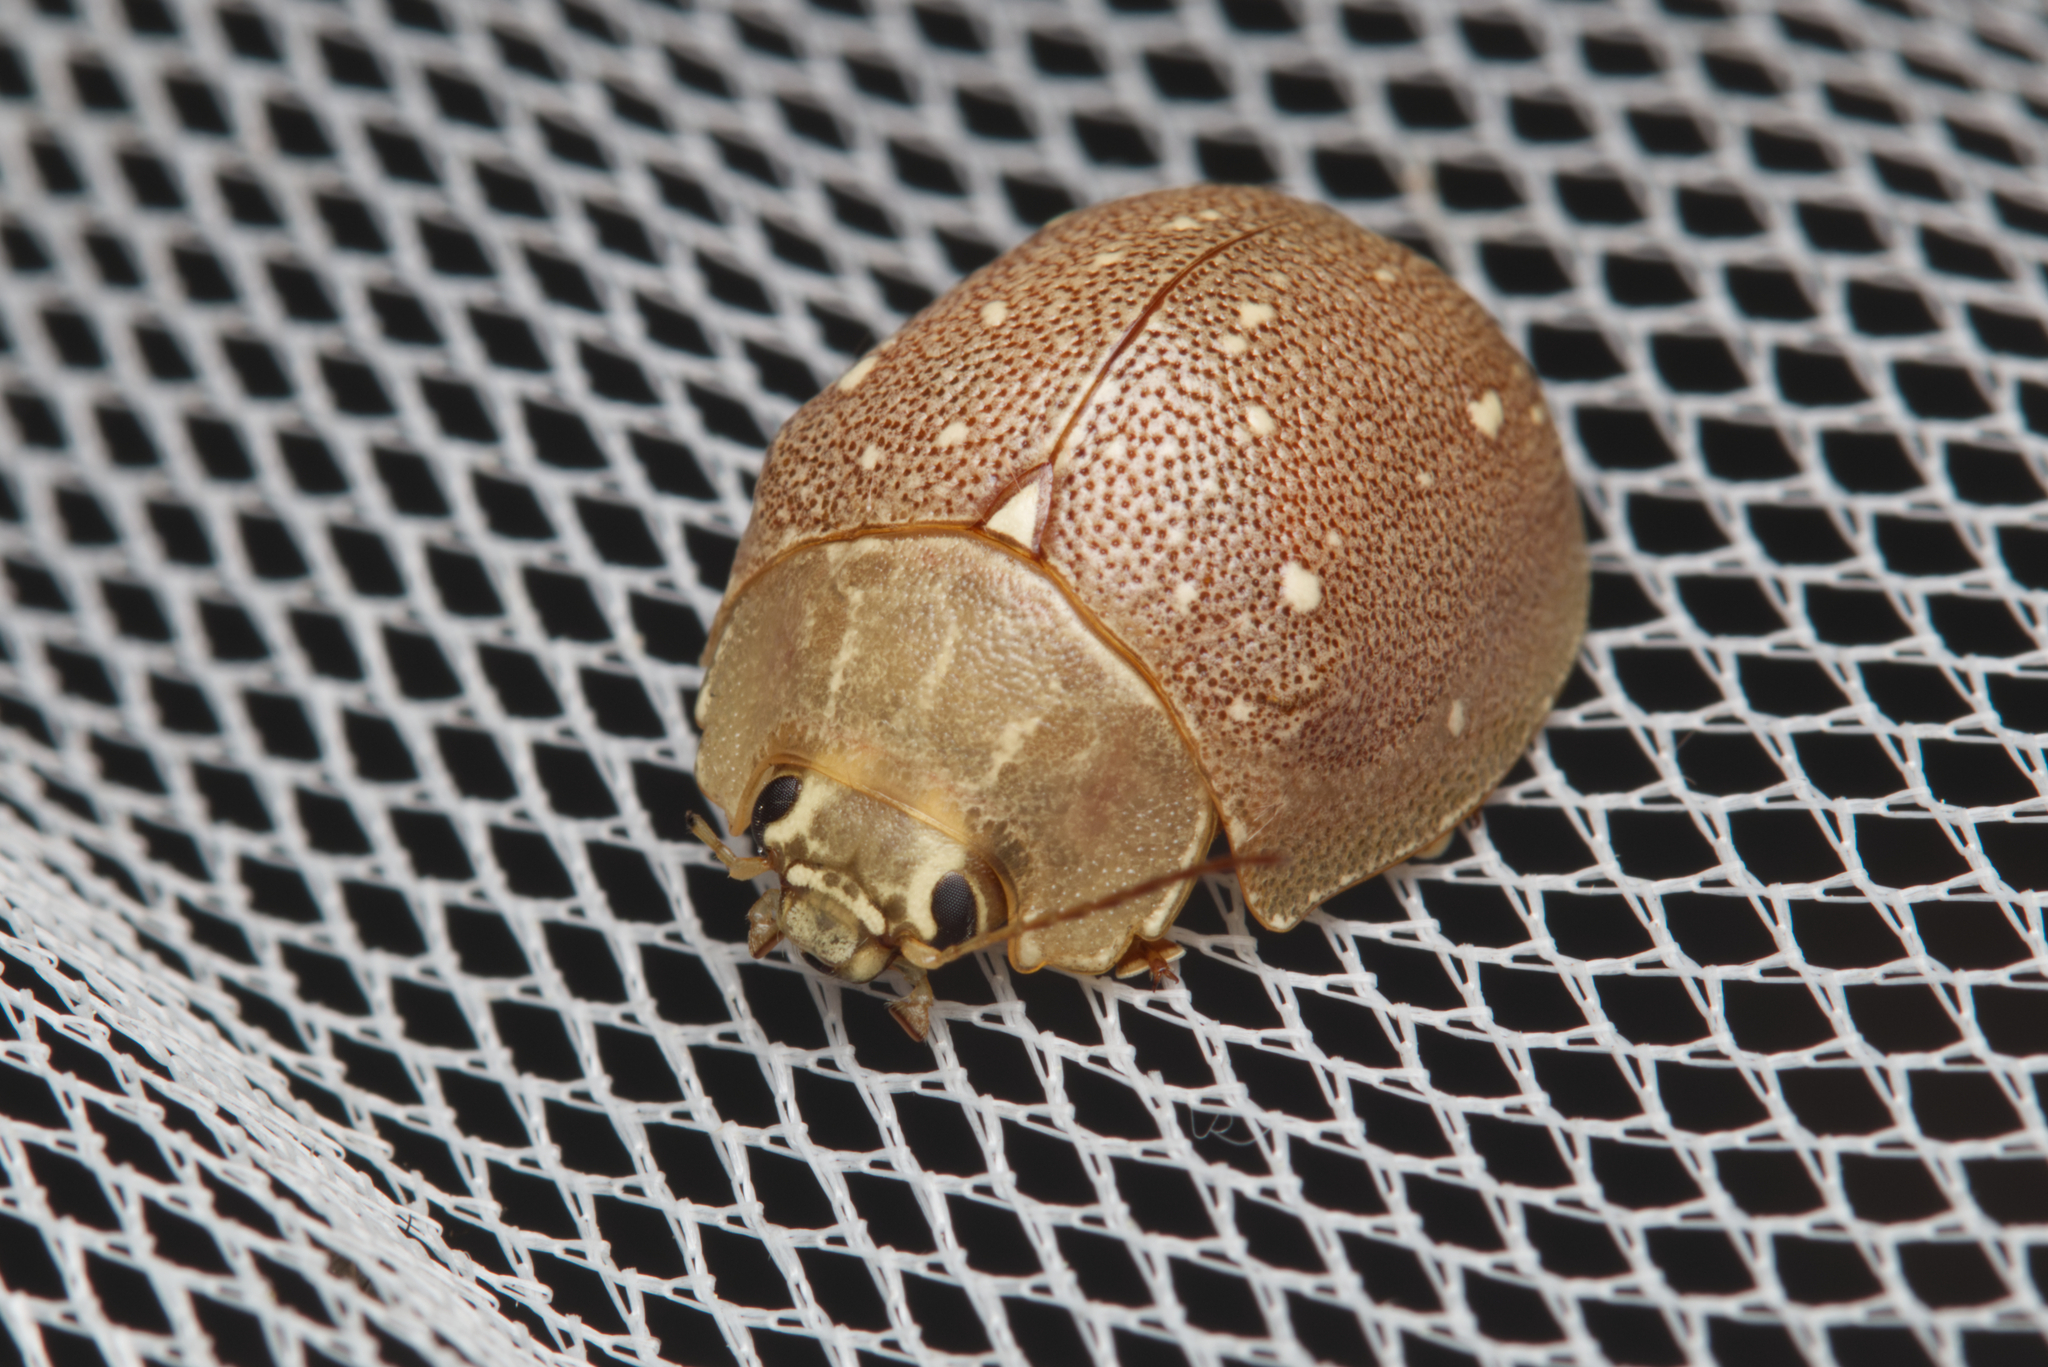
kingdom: Animalia
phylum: Arthropoda
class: Insecta
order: Coleoptera
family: Chrysomelidae
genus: Paropsis
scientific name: Paropsis
